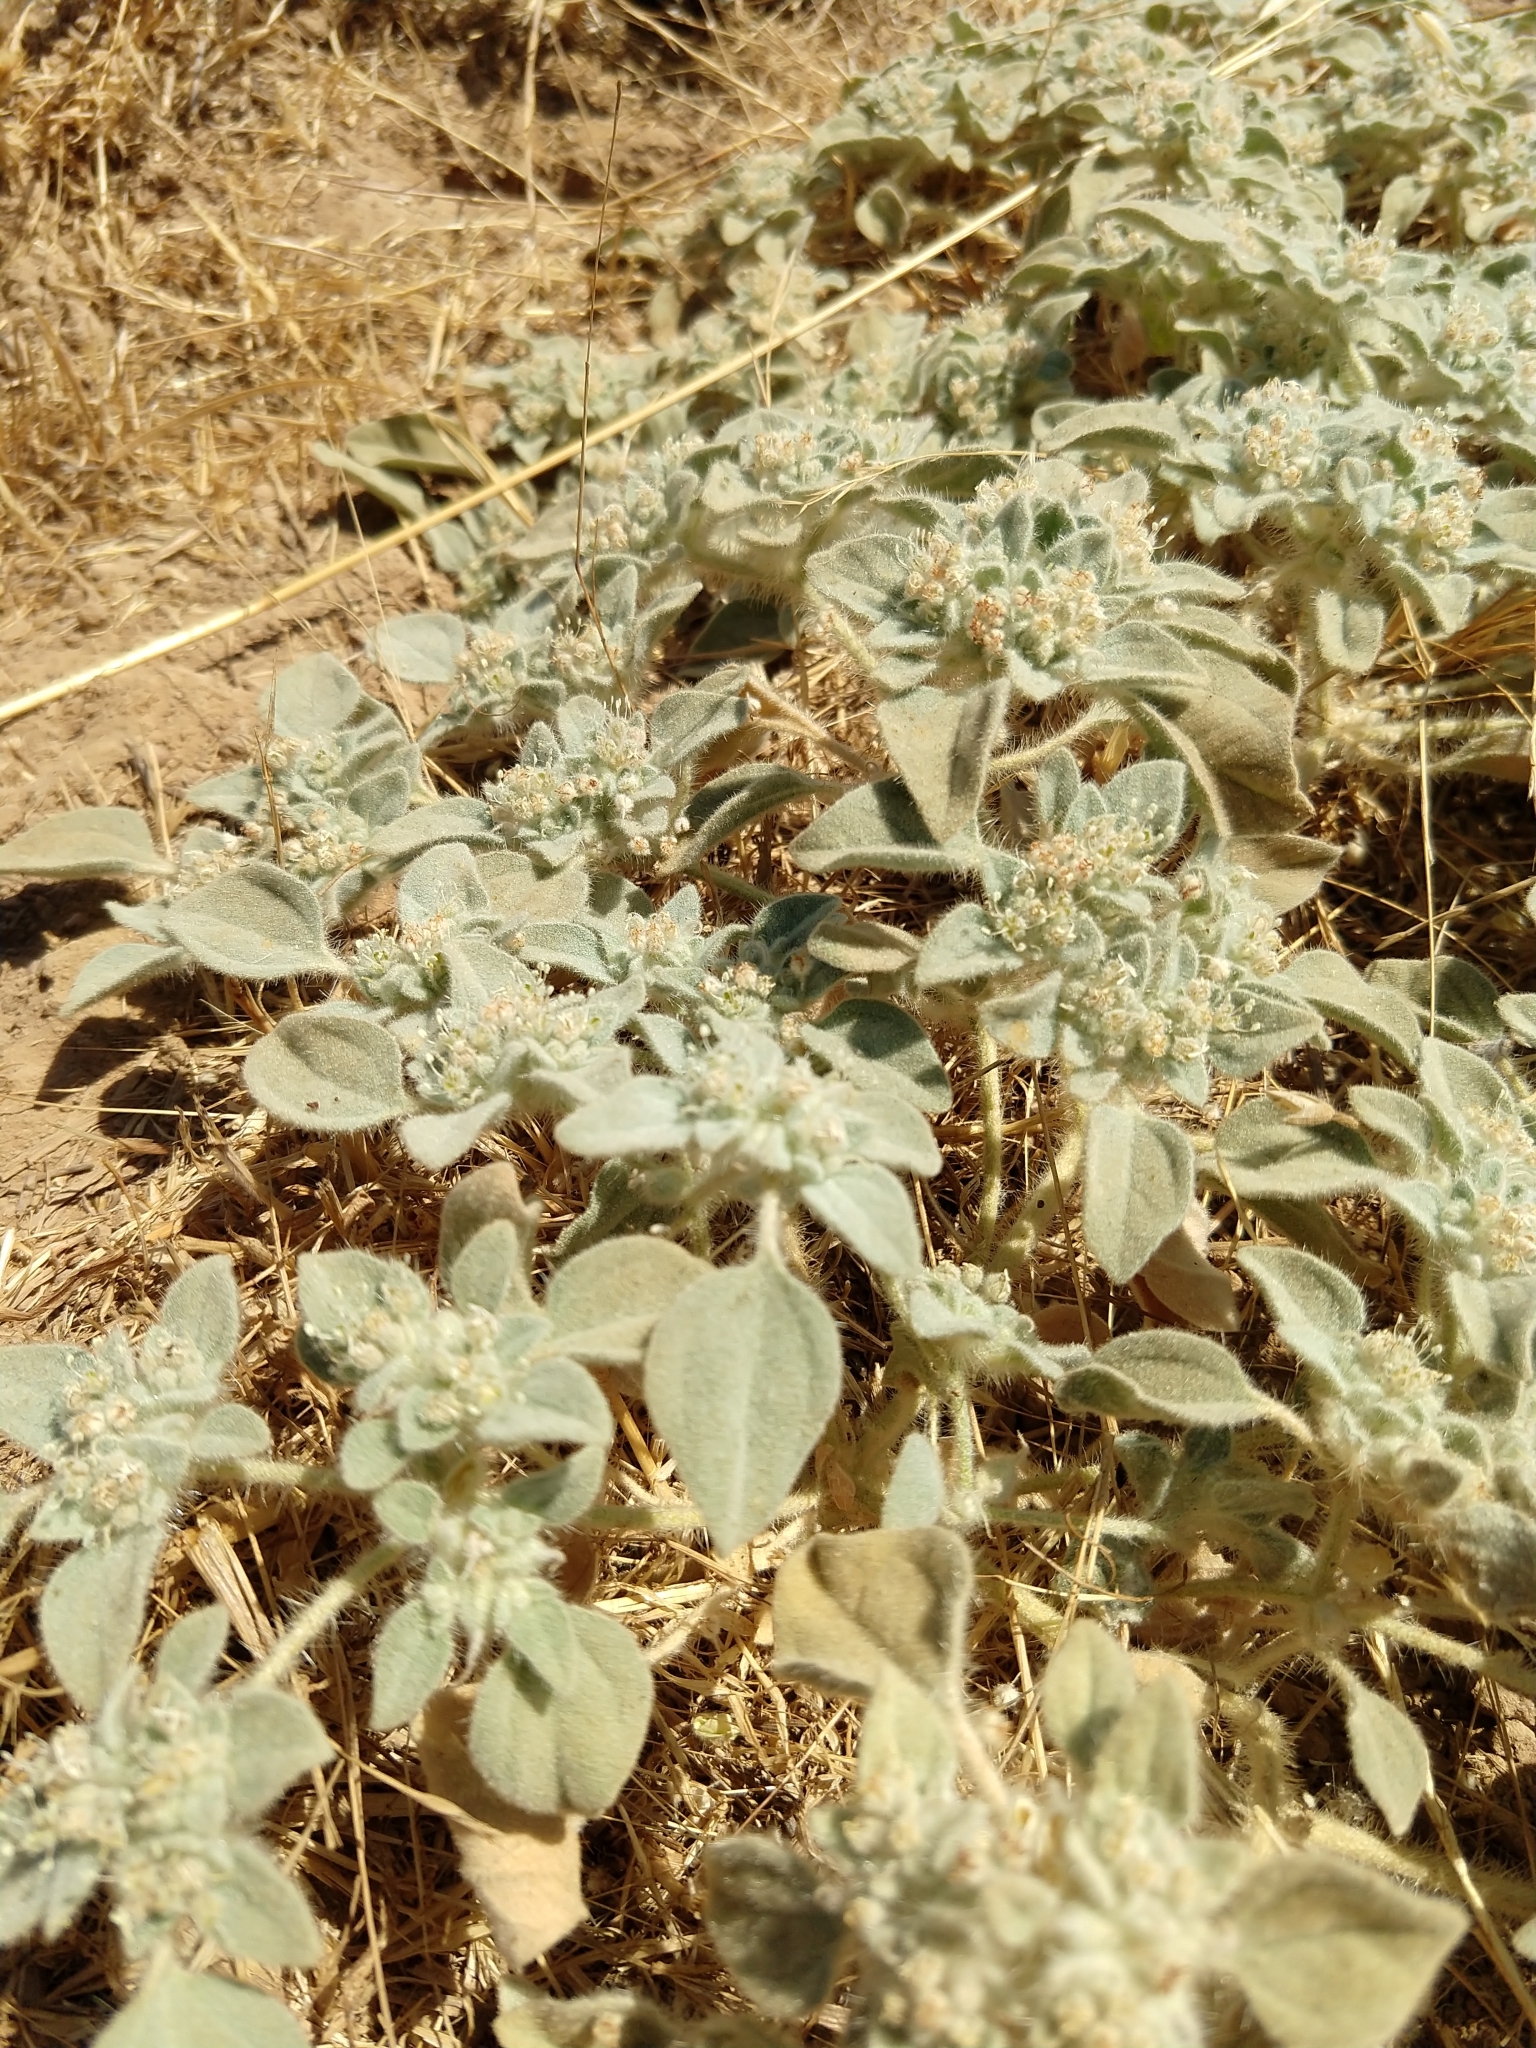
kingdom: Plantae
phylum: Tracheophyta
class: Magnoliopsida
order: Malpighiales
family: Euphorbiaceae
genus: Croton
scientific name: Croton setiger
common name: Dove weed
